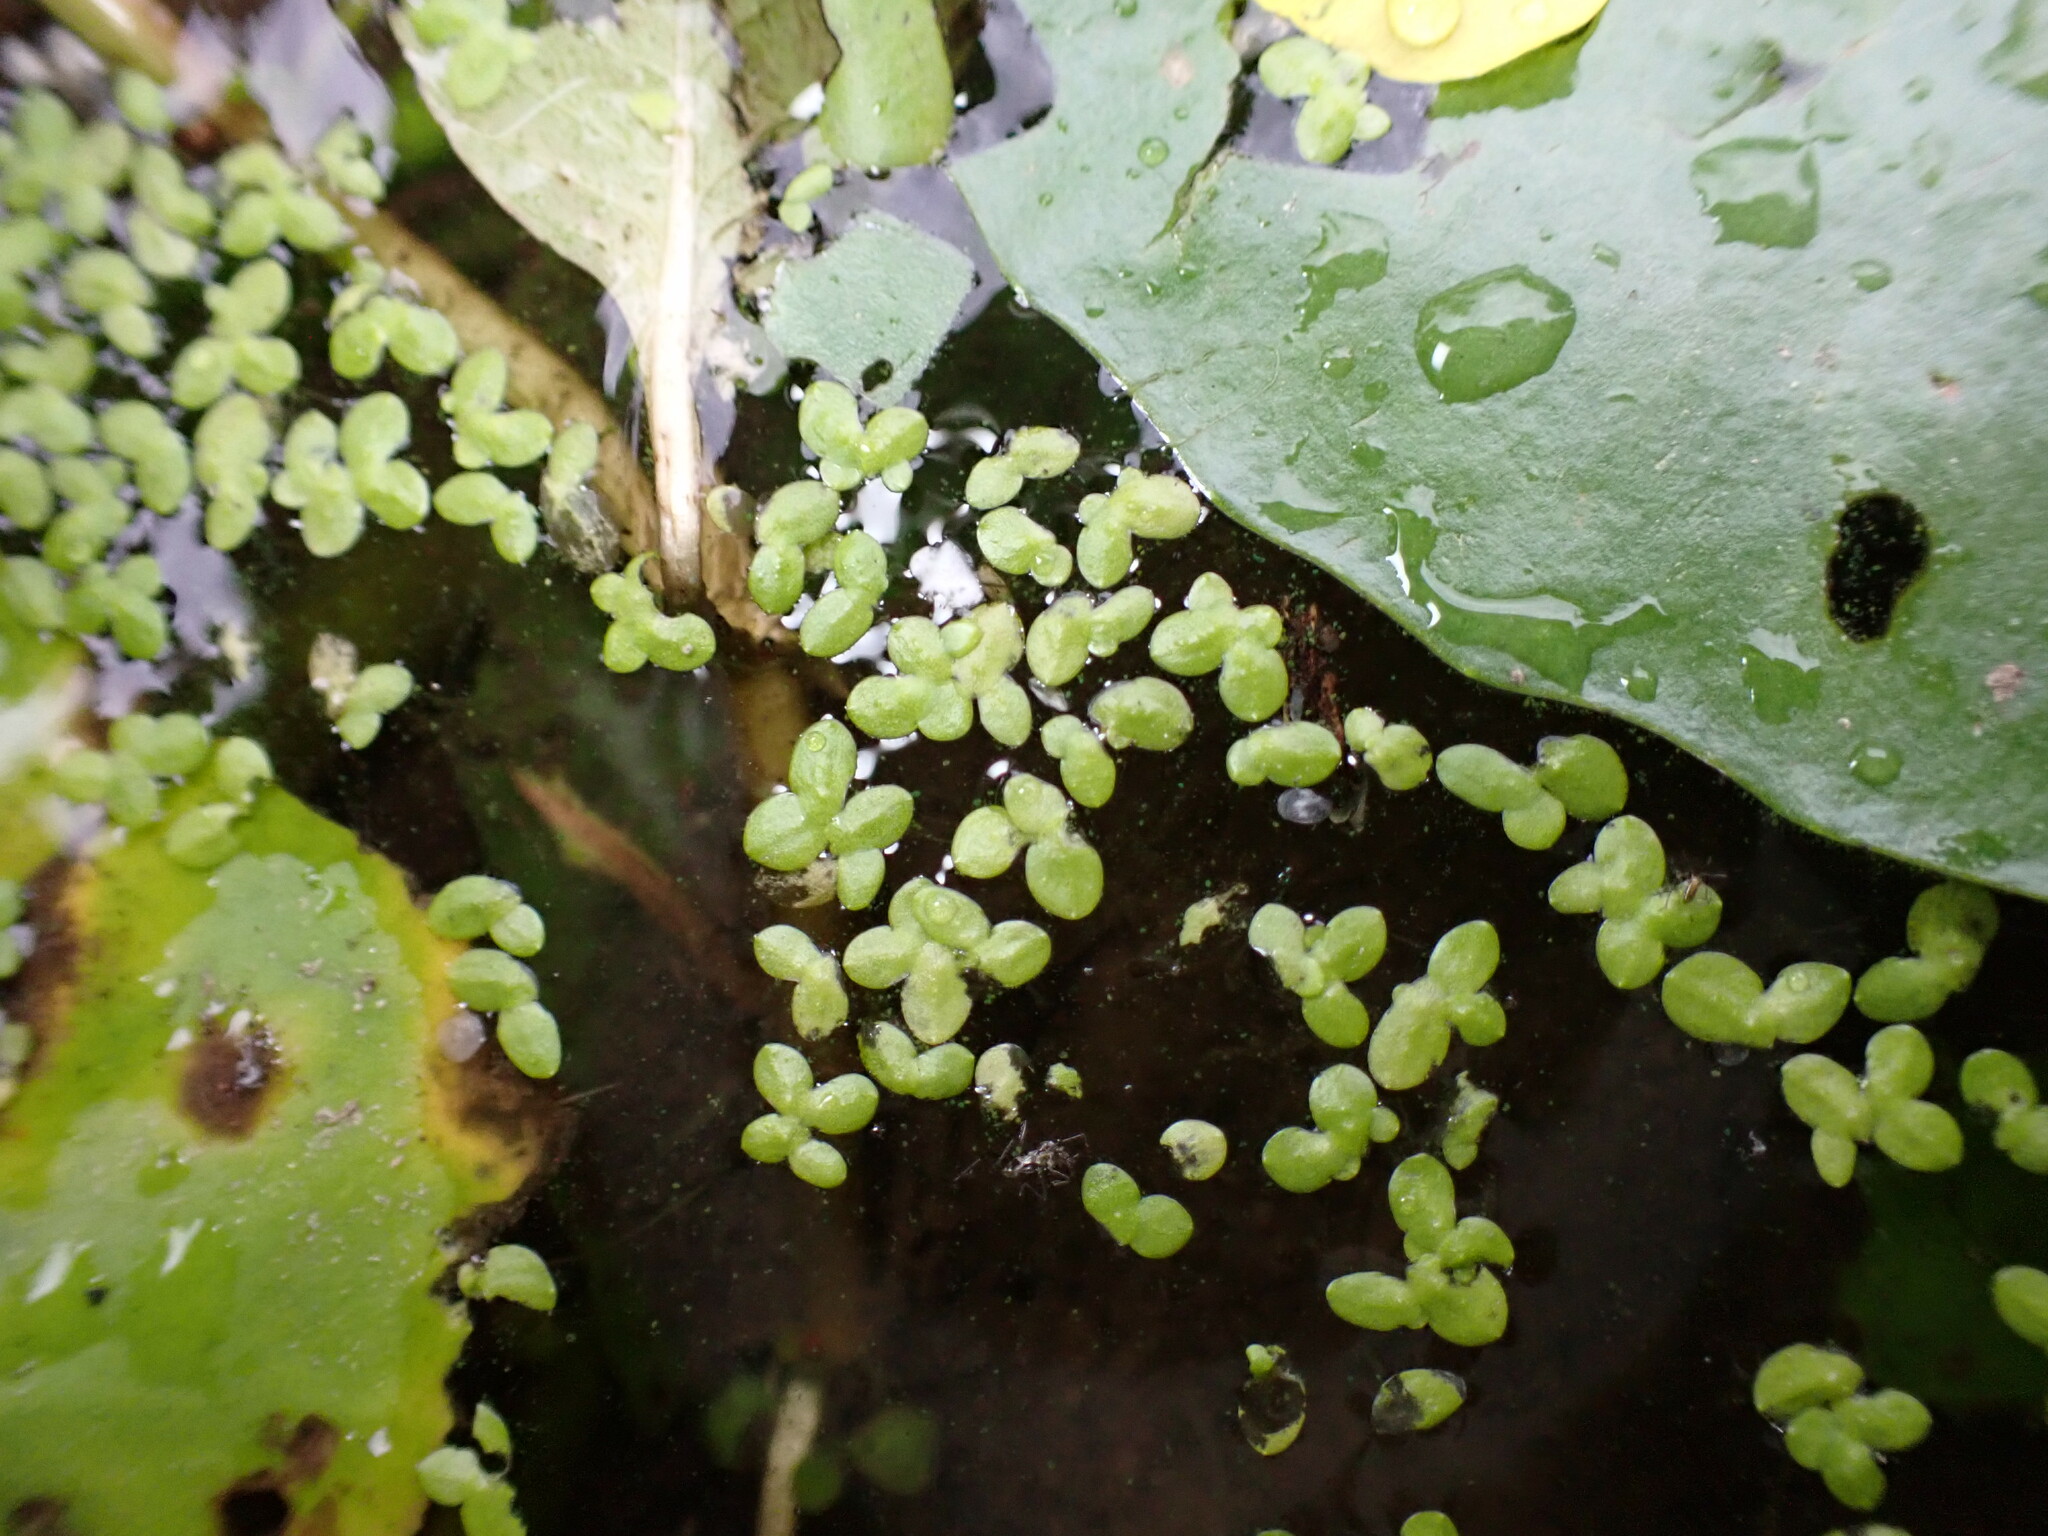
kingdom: Plantae
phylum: Tracheophyta
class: Liliopsida
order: Alismatales
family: Araceae
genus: Lemna
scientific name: Lemna minor
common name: Common duckweed
